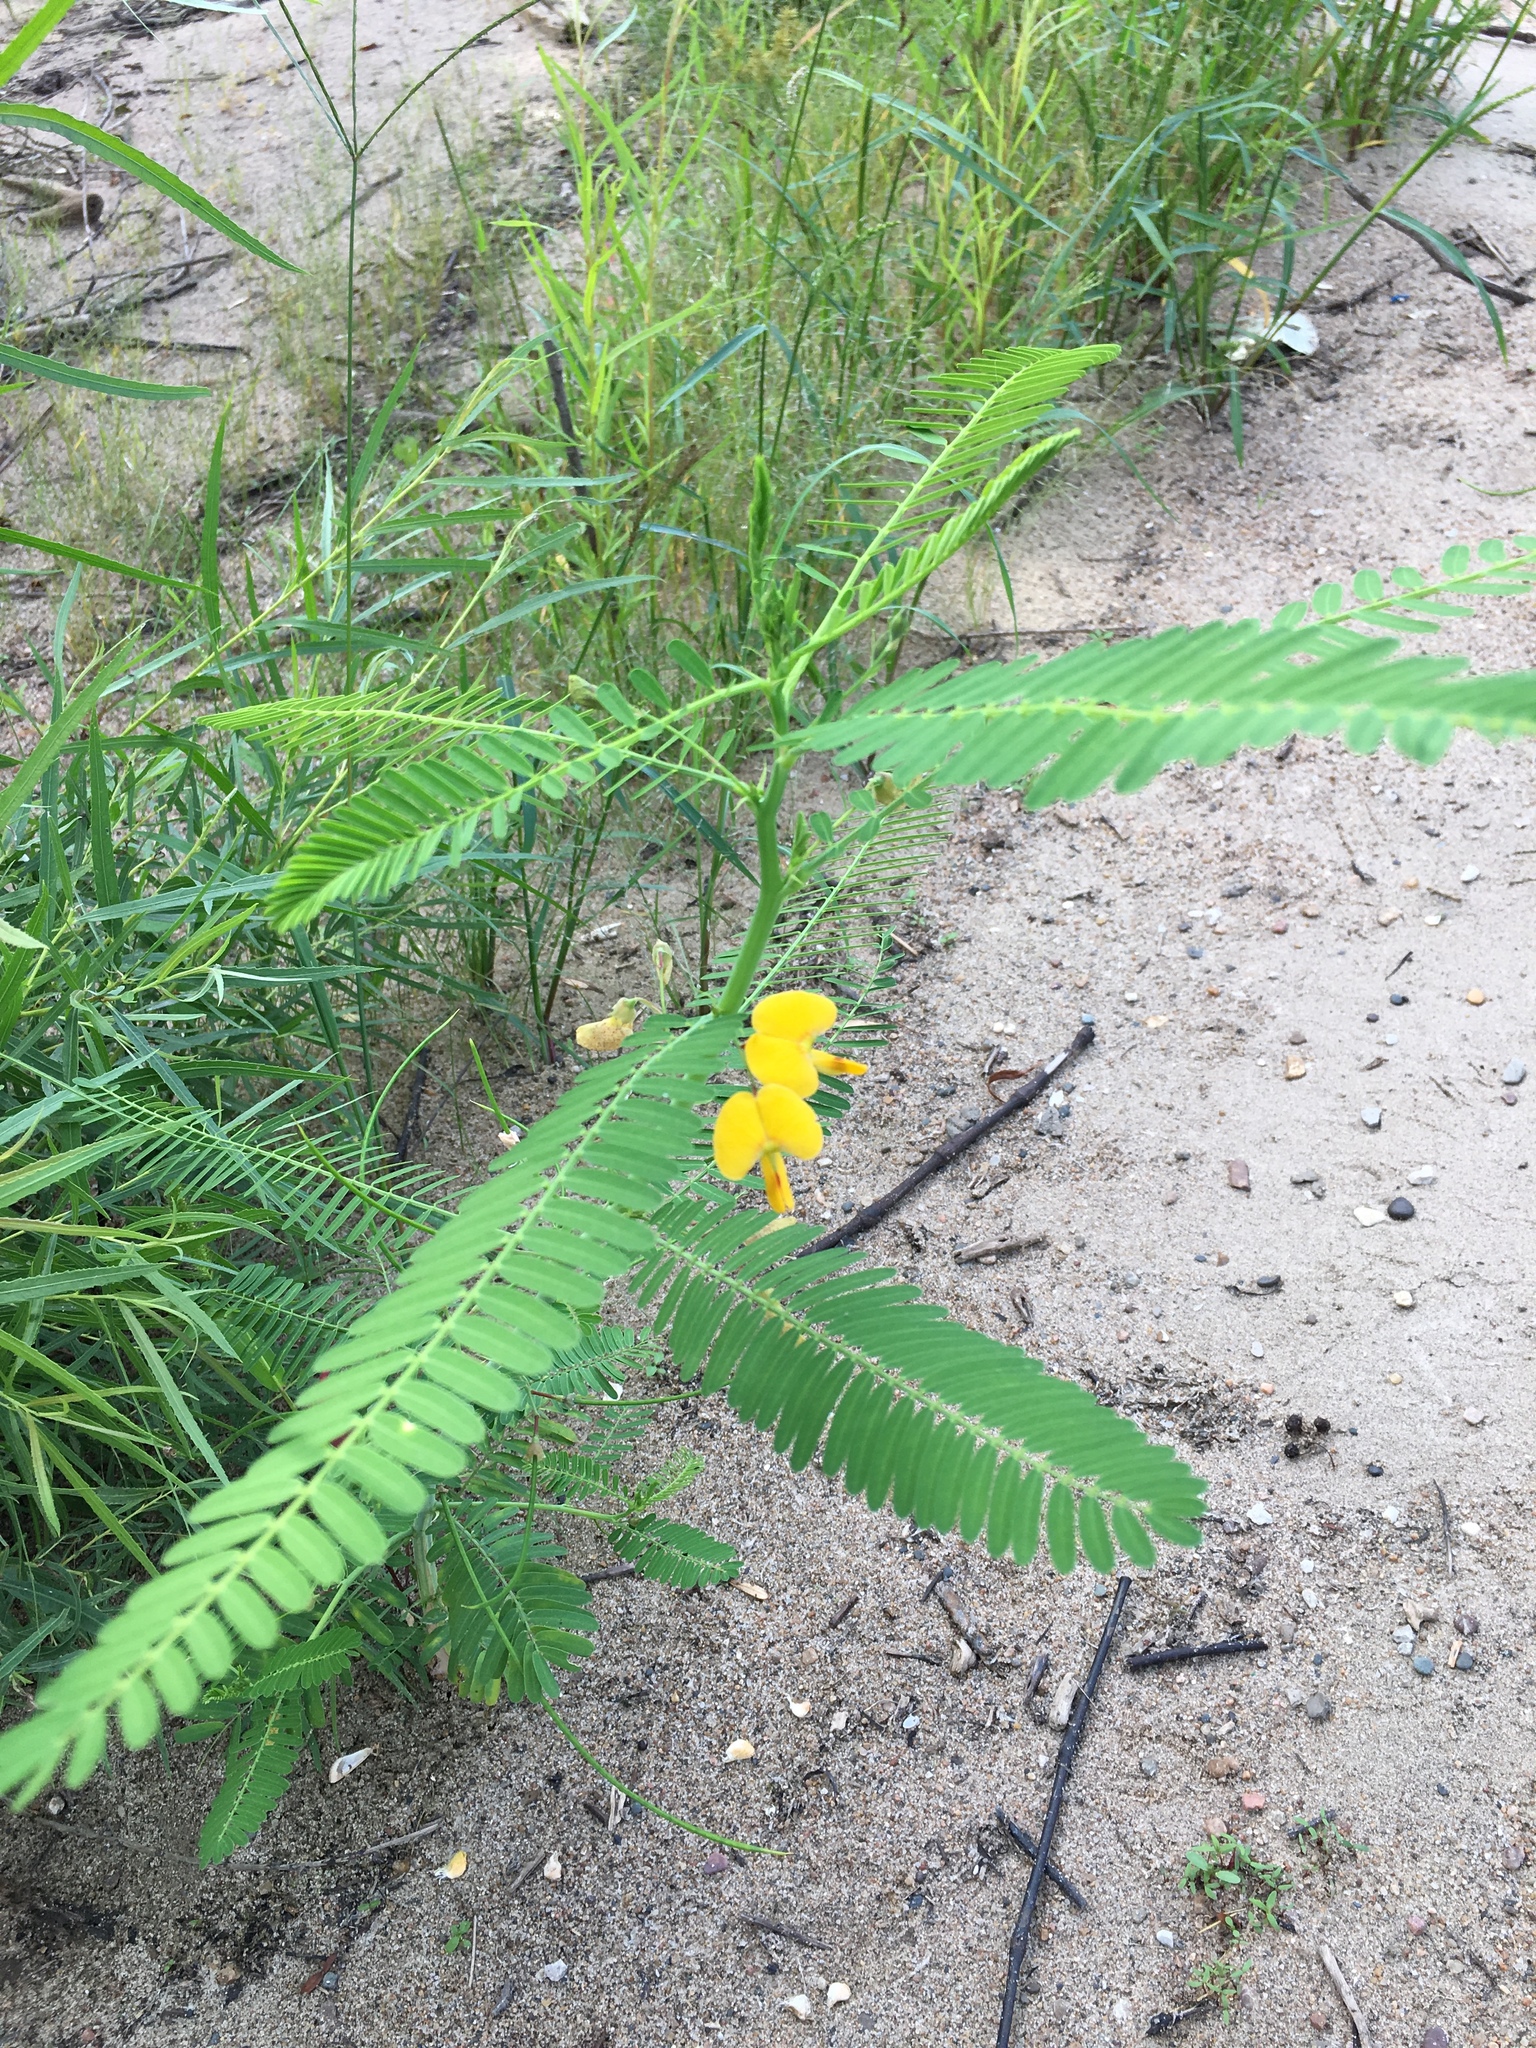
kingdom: Plantae
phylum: Tracheophyta
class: Magnoliopsida
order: Fabales
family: Fabaceae
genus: Sesbania
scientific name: Sesbania herbacea
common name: Bigpod sesbania
